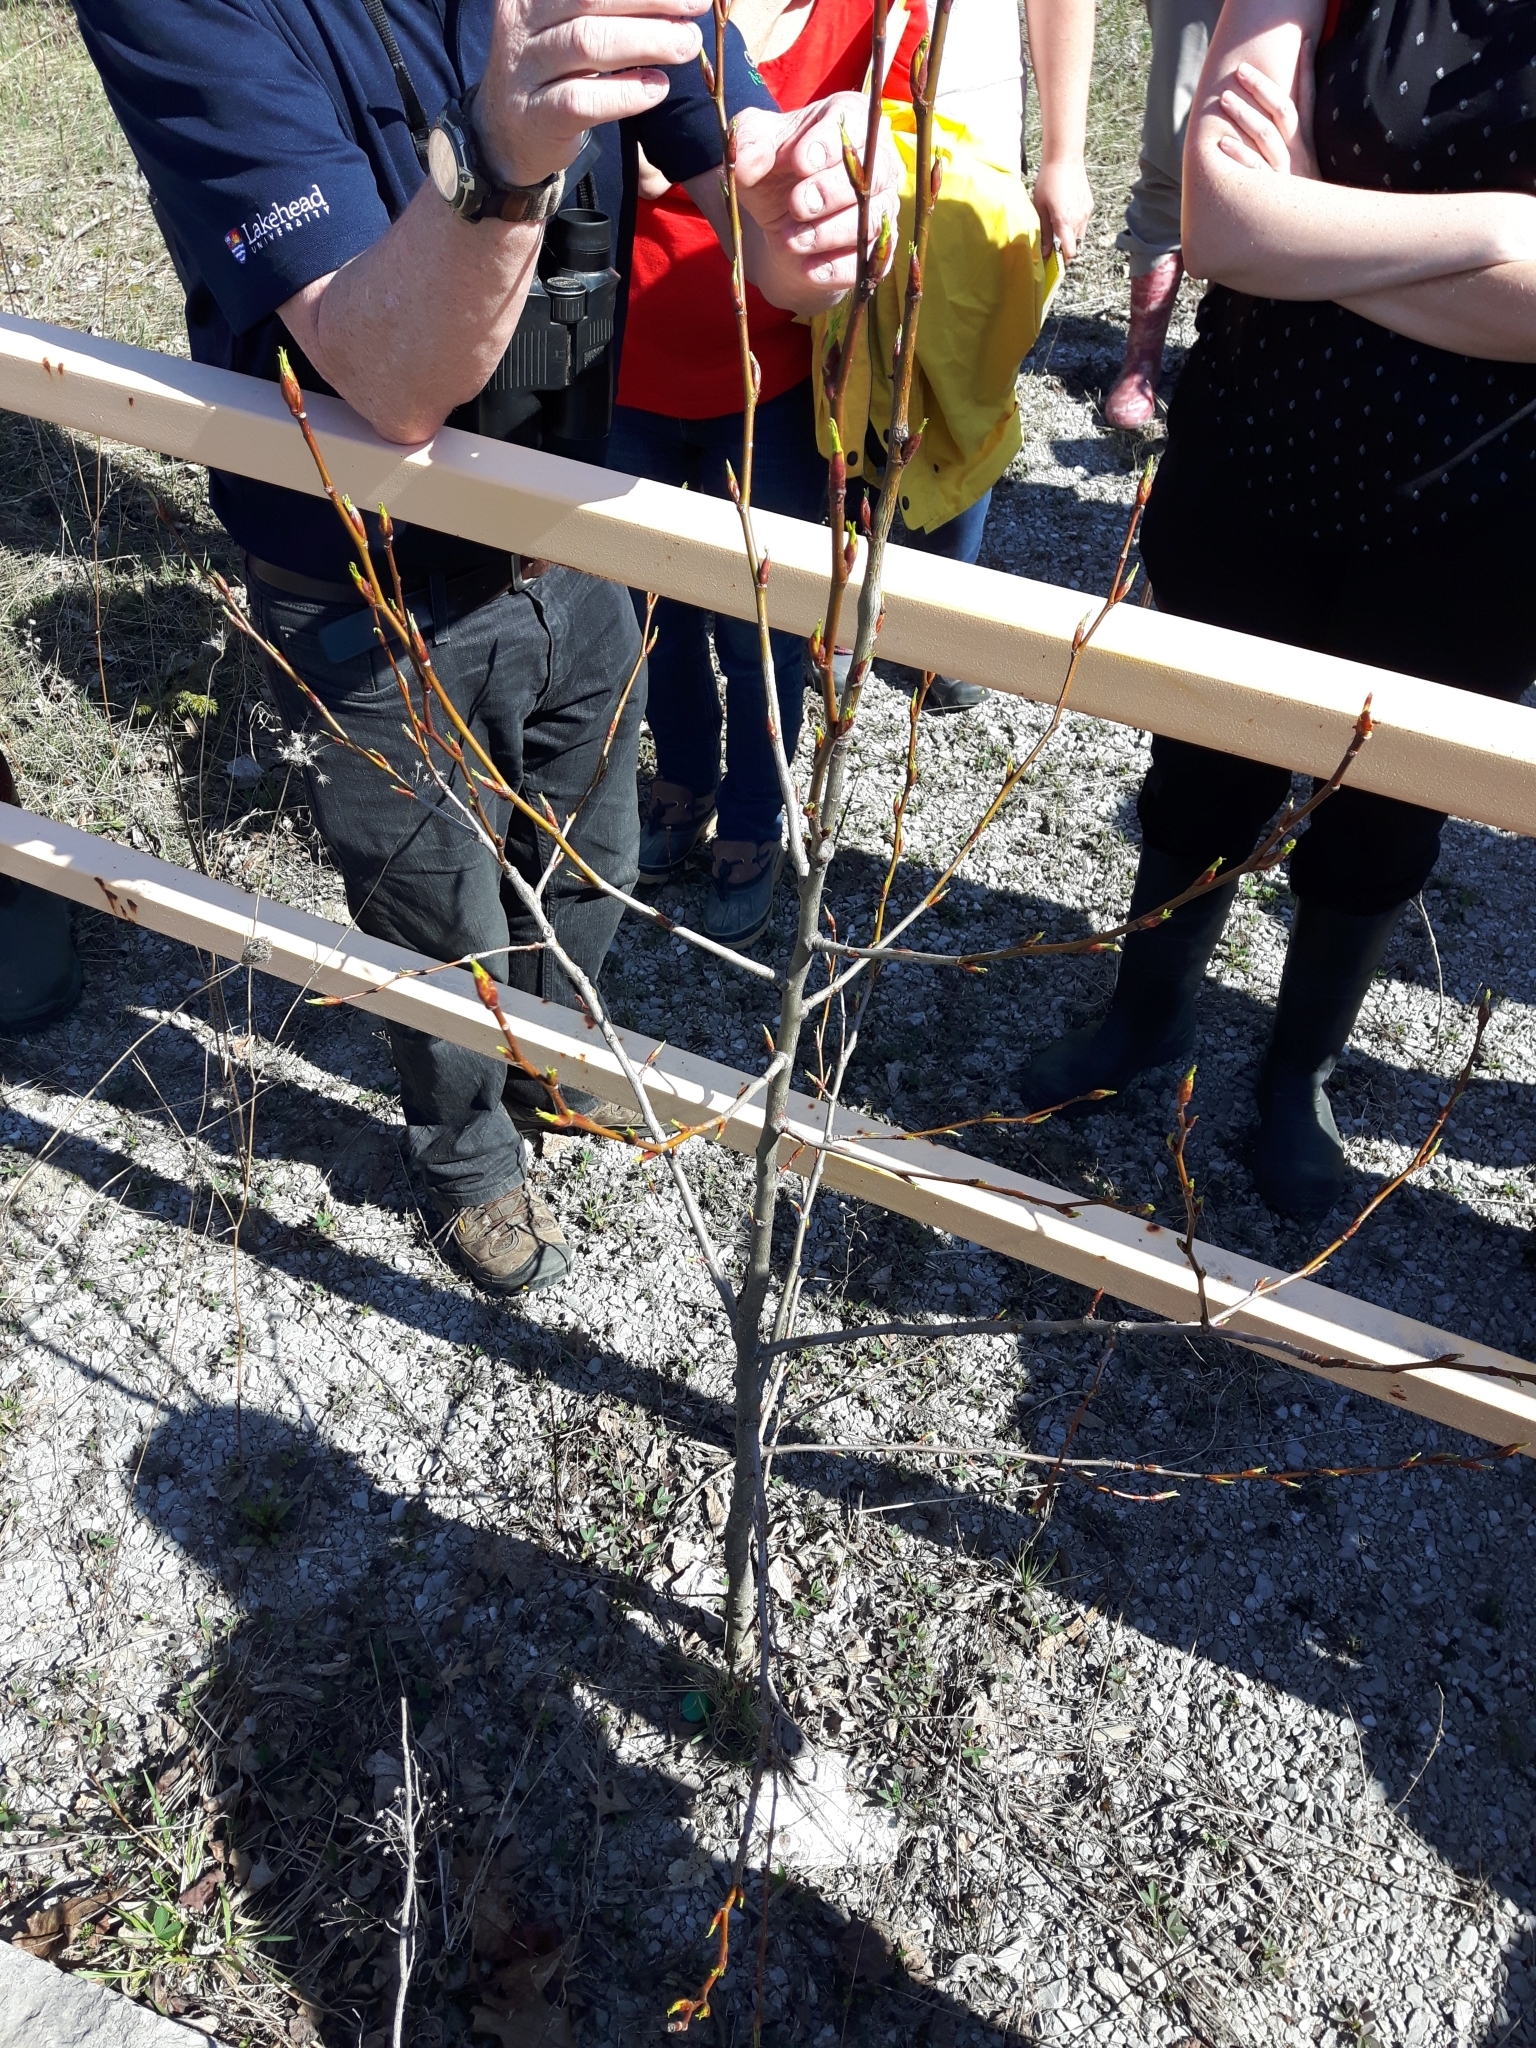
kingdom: Plantae
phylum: Tracheophyta
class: Magnoliopsida
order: Malpighiales
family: Salicaceae
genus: Populus
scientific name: Populus balsamifera
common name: Balsam poplar
